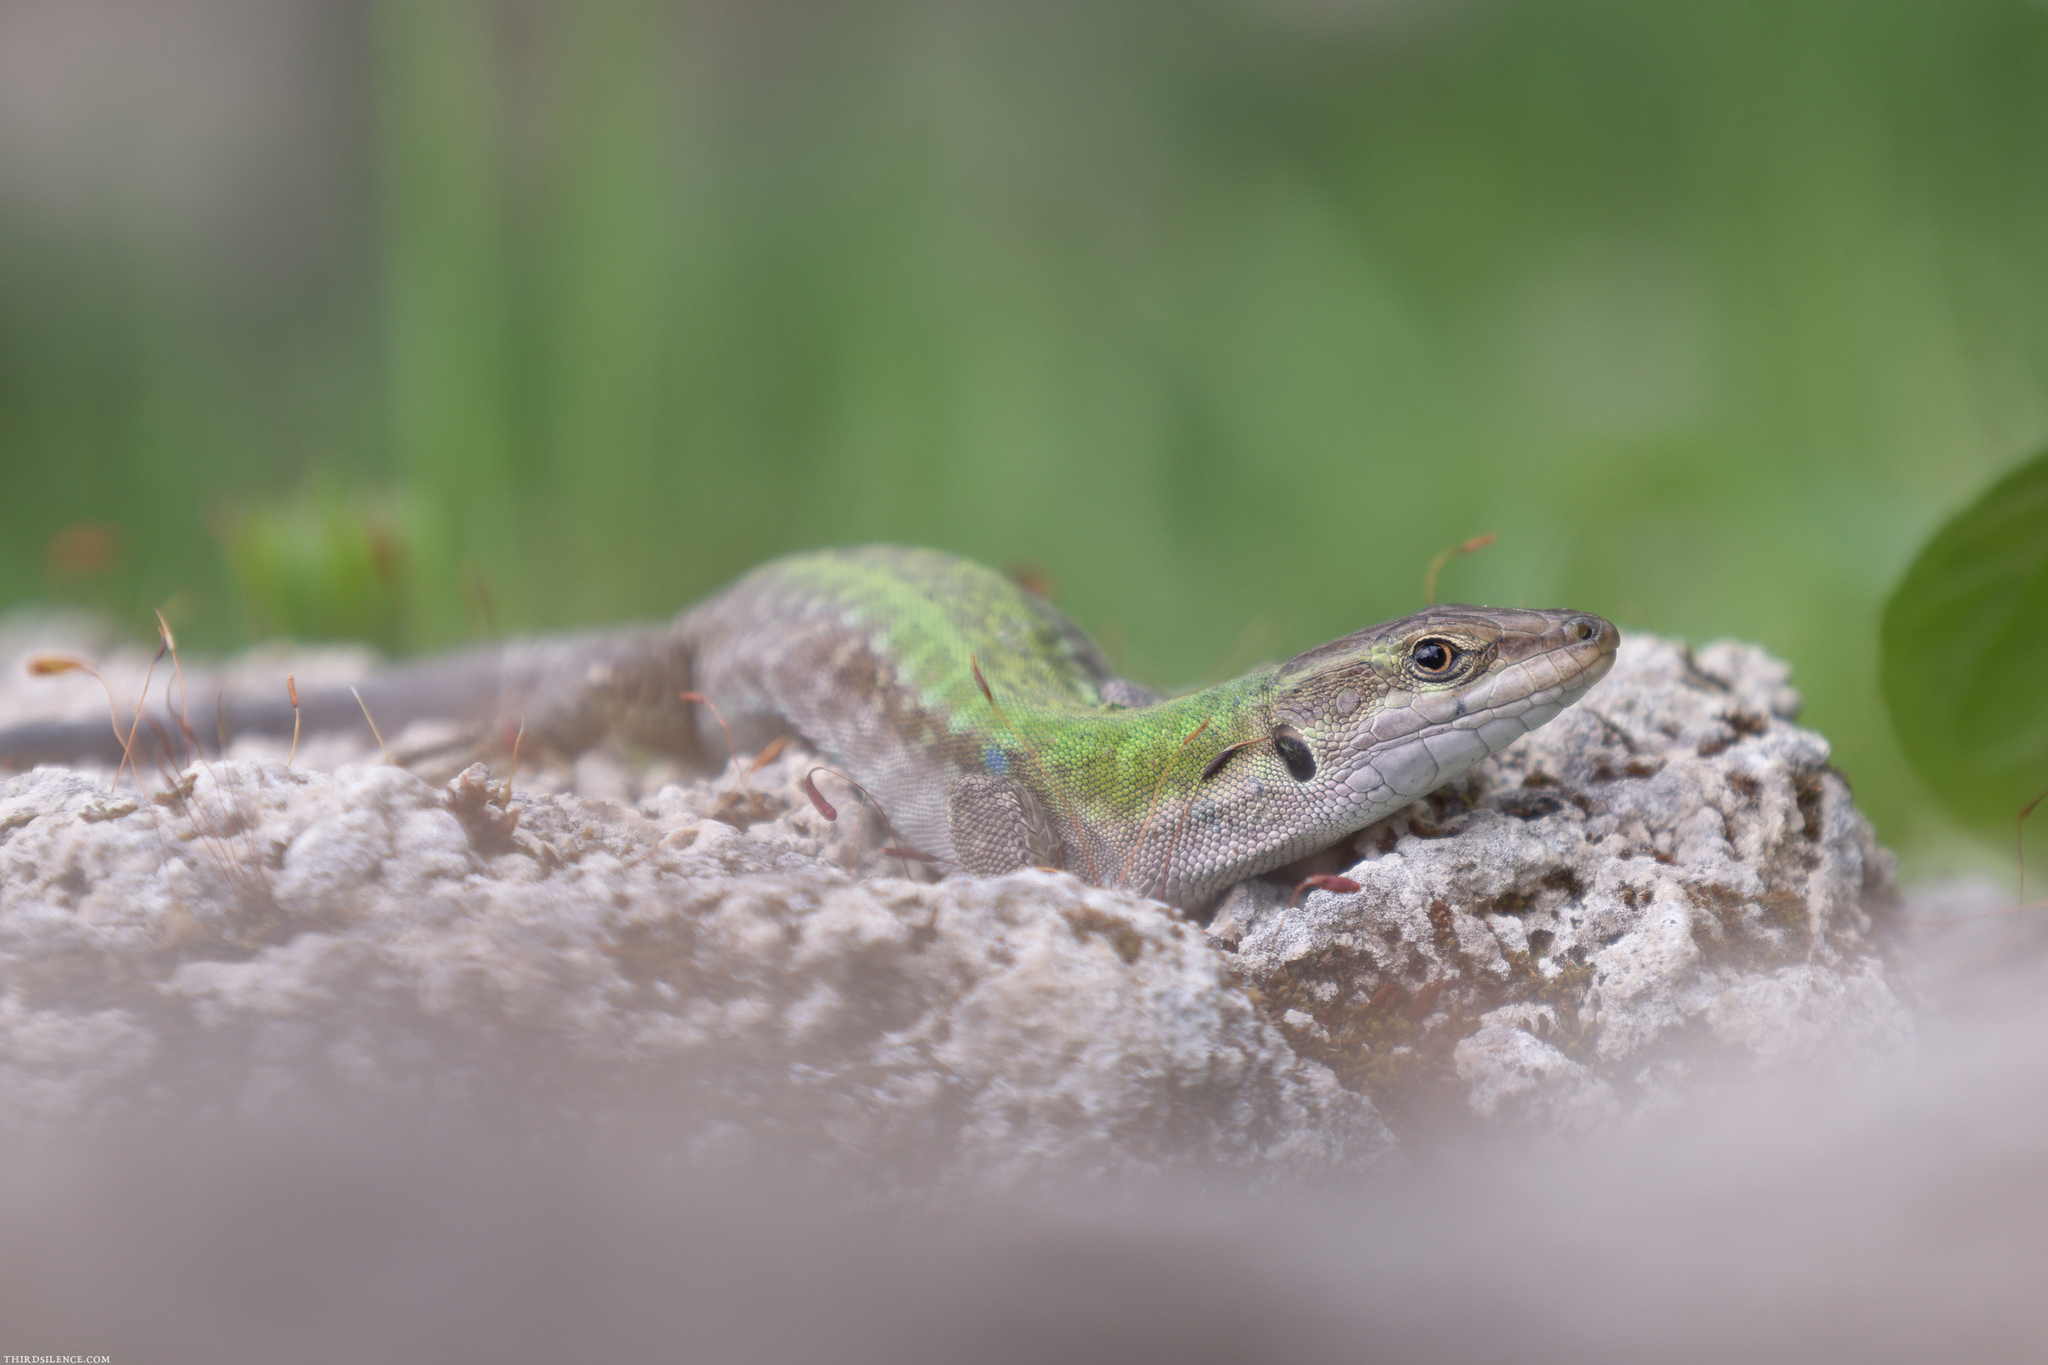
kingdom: Animalia
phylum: Chordata
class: Squamata
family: Lacertidae
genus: Podarcis
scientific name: Podarcis siculus
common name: Italian wall lizard
